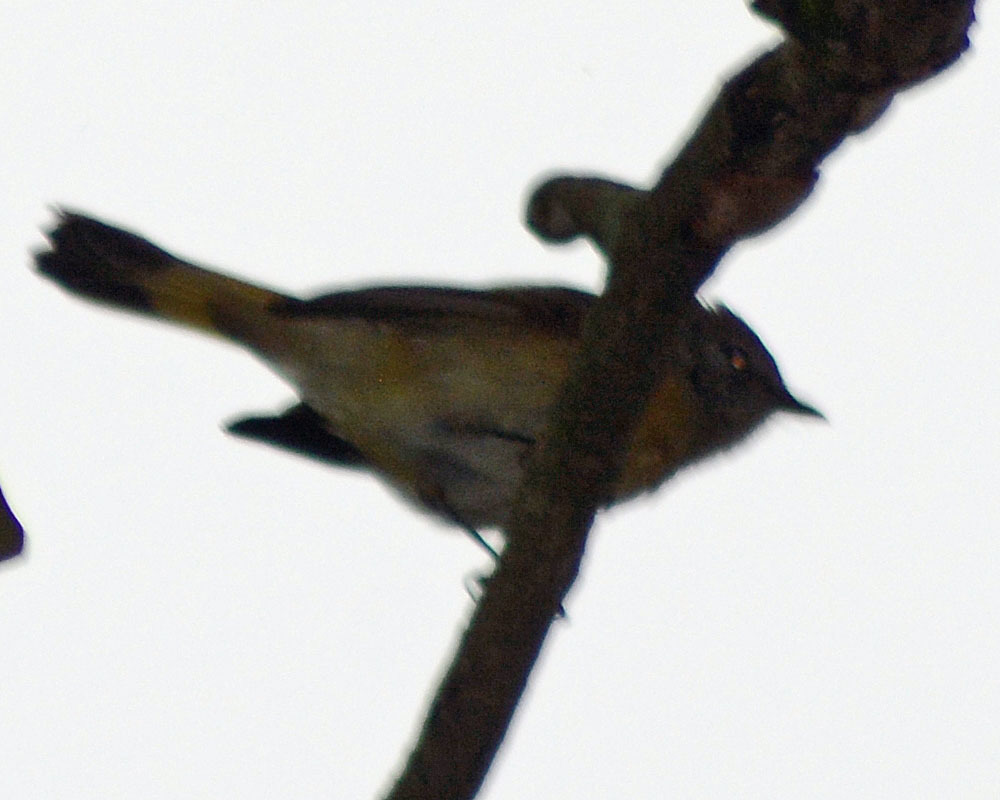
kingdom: Animalia
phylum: Chordata
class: Aves
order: Passeriformes
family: Parulidae
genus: Setophaga
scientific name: Setophaga ruticilla
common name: American redstart
